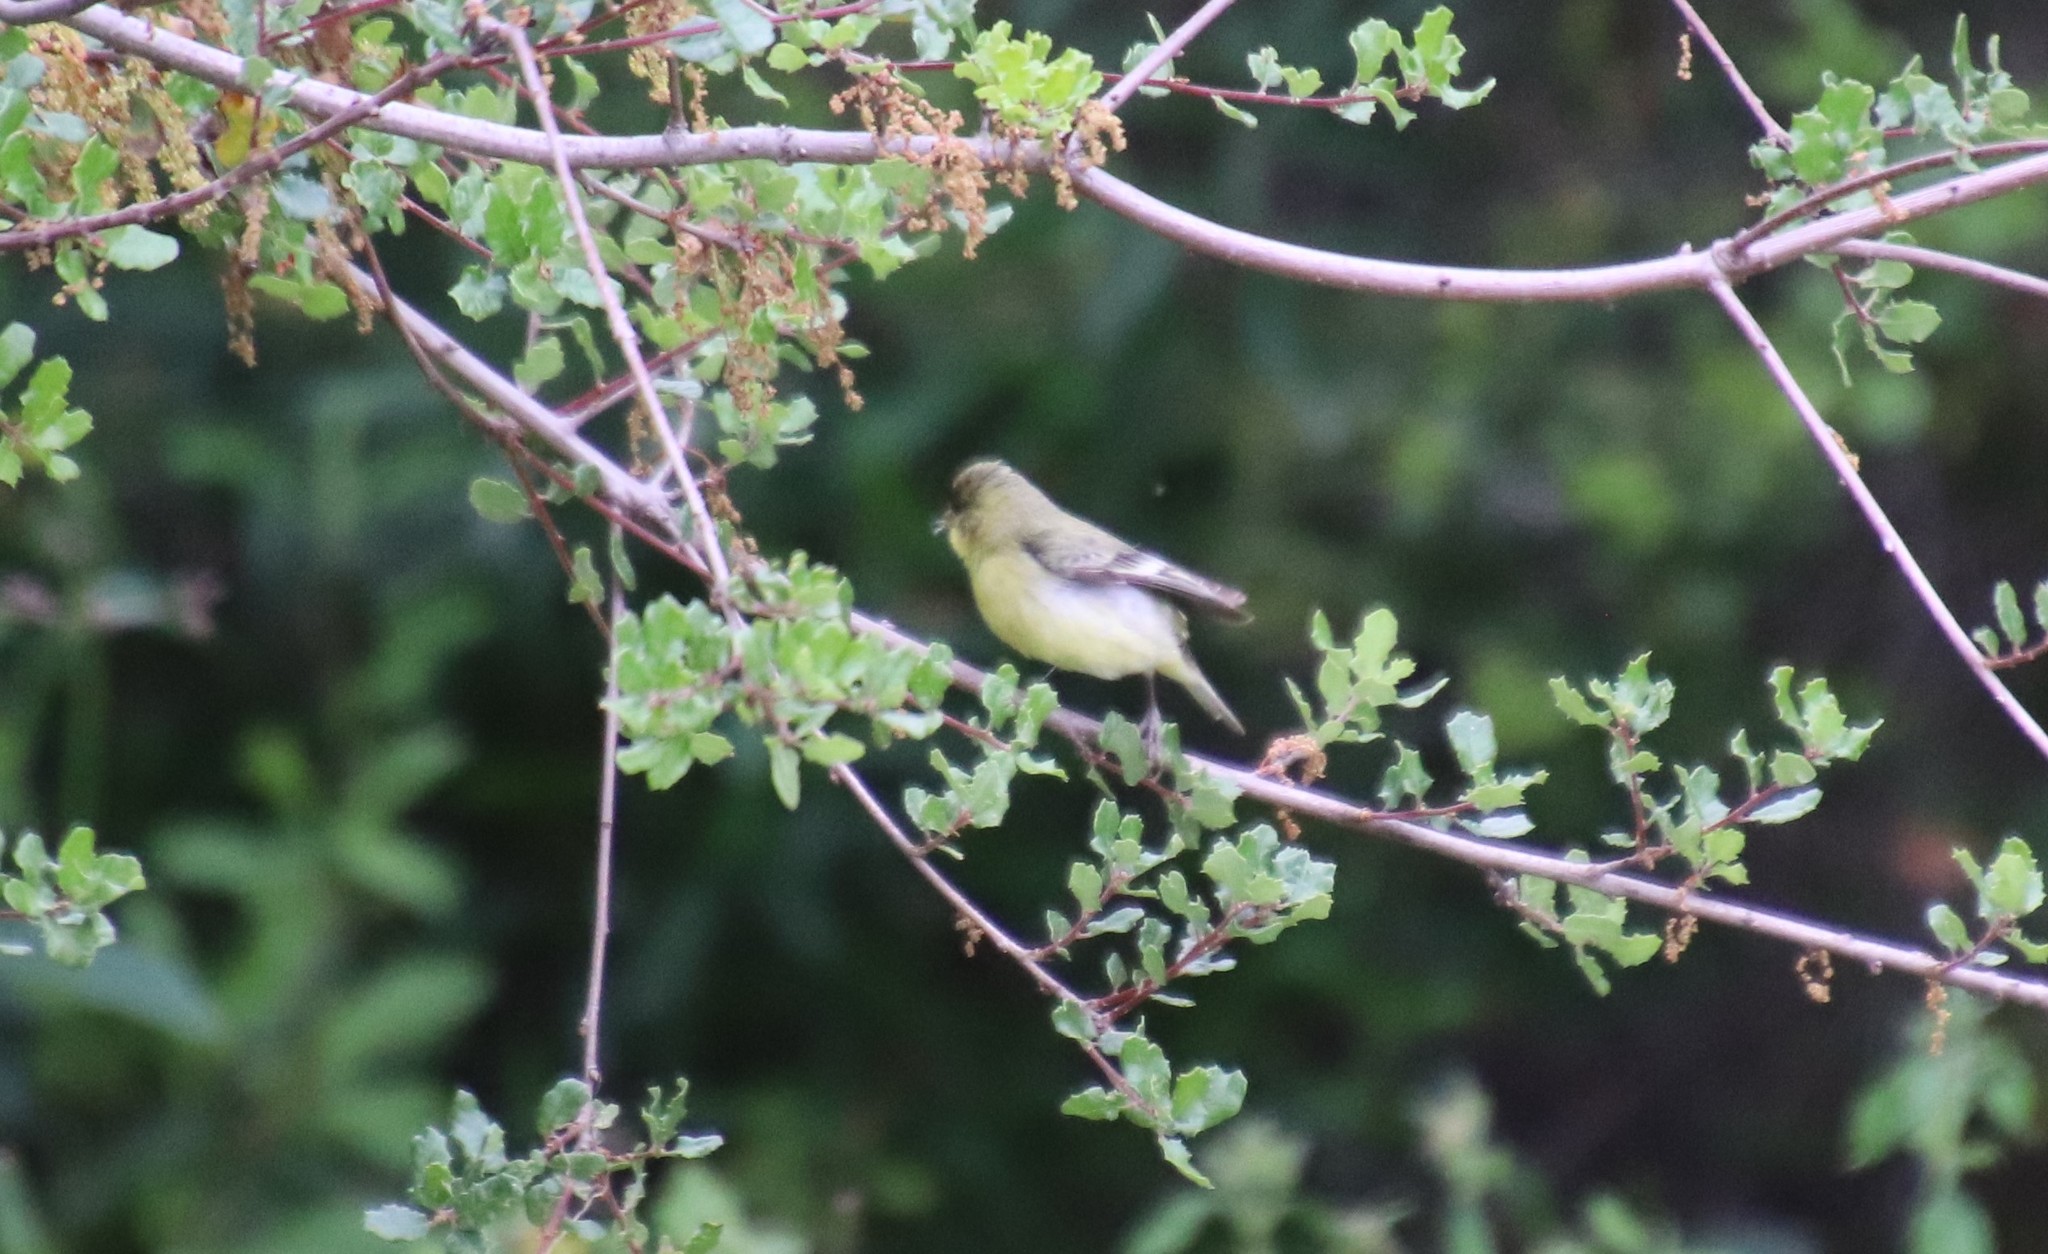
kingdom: Animalia
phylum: Chordata
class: Aves
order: Passeriformes
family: Fringillidae
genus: Spinus
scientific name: Spinus psaltria
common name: Lesser goldfinch
